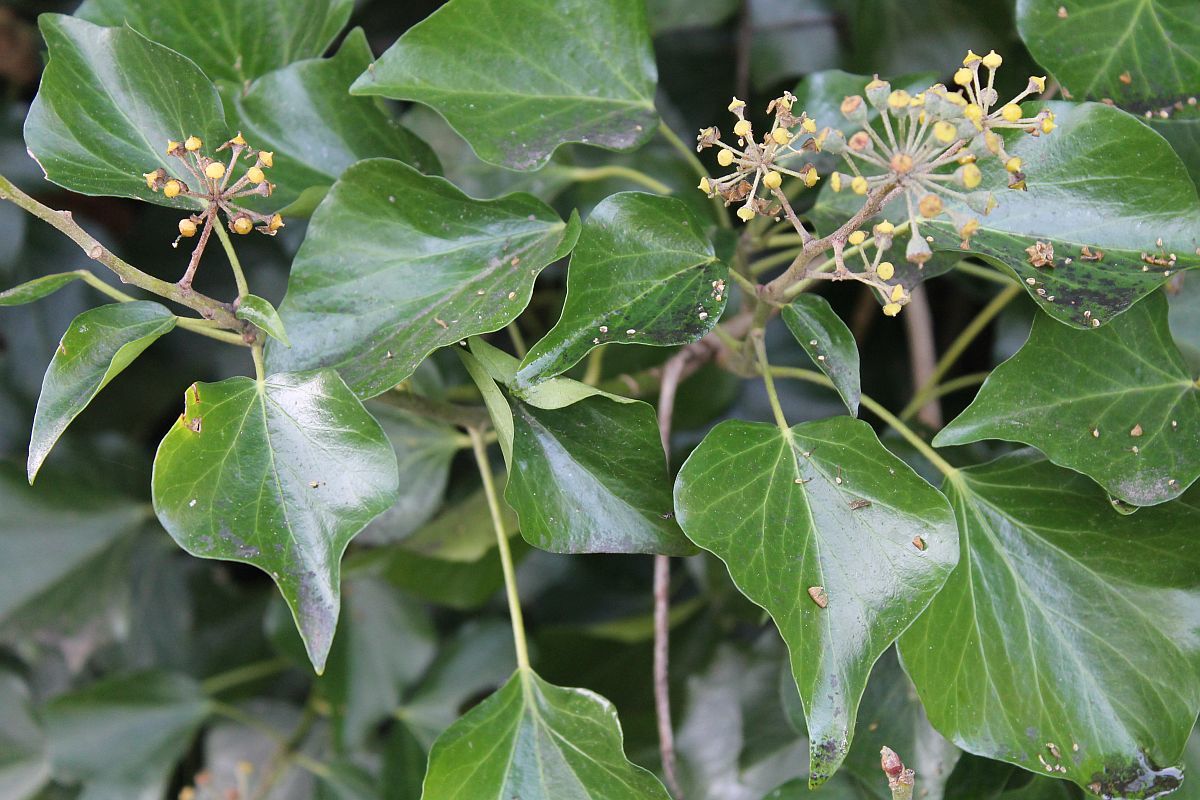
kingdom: Plantae
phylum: Tracheophyta
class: Magnoliopsida
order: Apiales
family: Araliaceae
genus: Hedera
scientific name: Hedera helix
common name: Ivy
